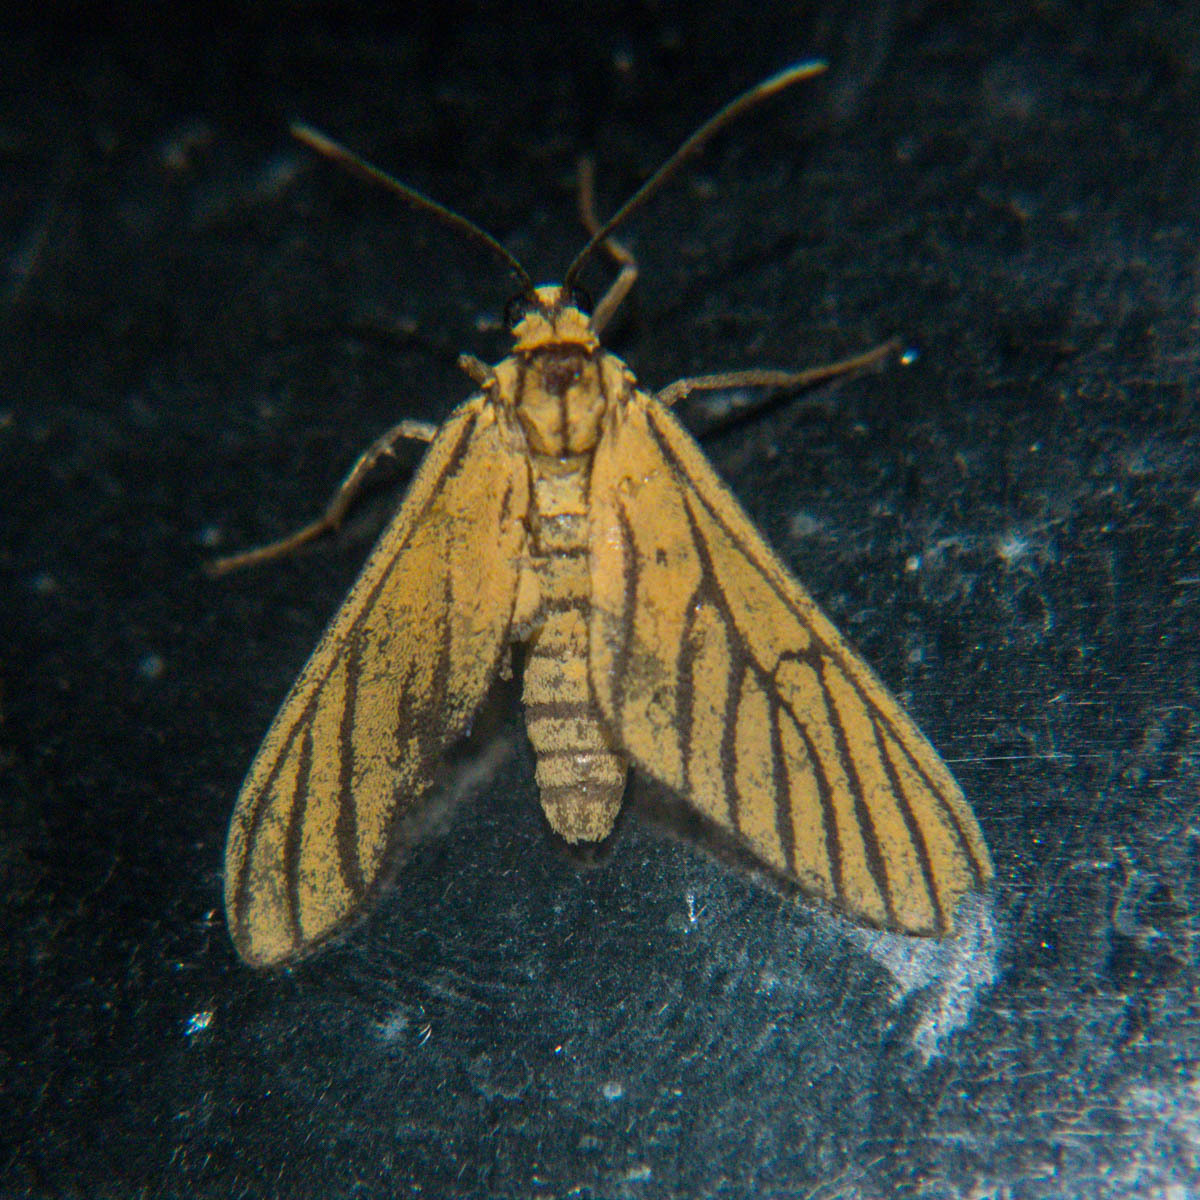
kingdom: Animalia
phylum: Arthropoda
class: Insecta
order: Lepidoptera
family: Erebidae
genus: Amata
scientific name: Amata tigrina
